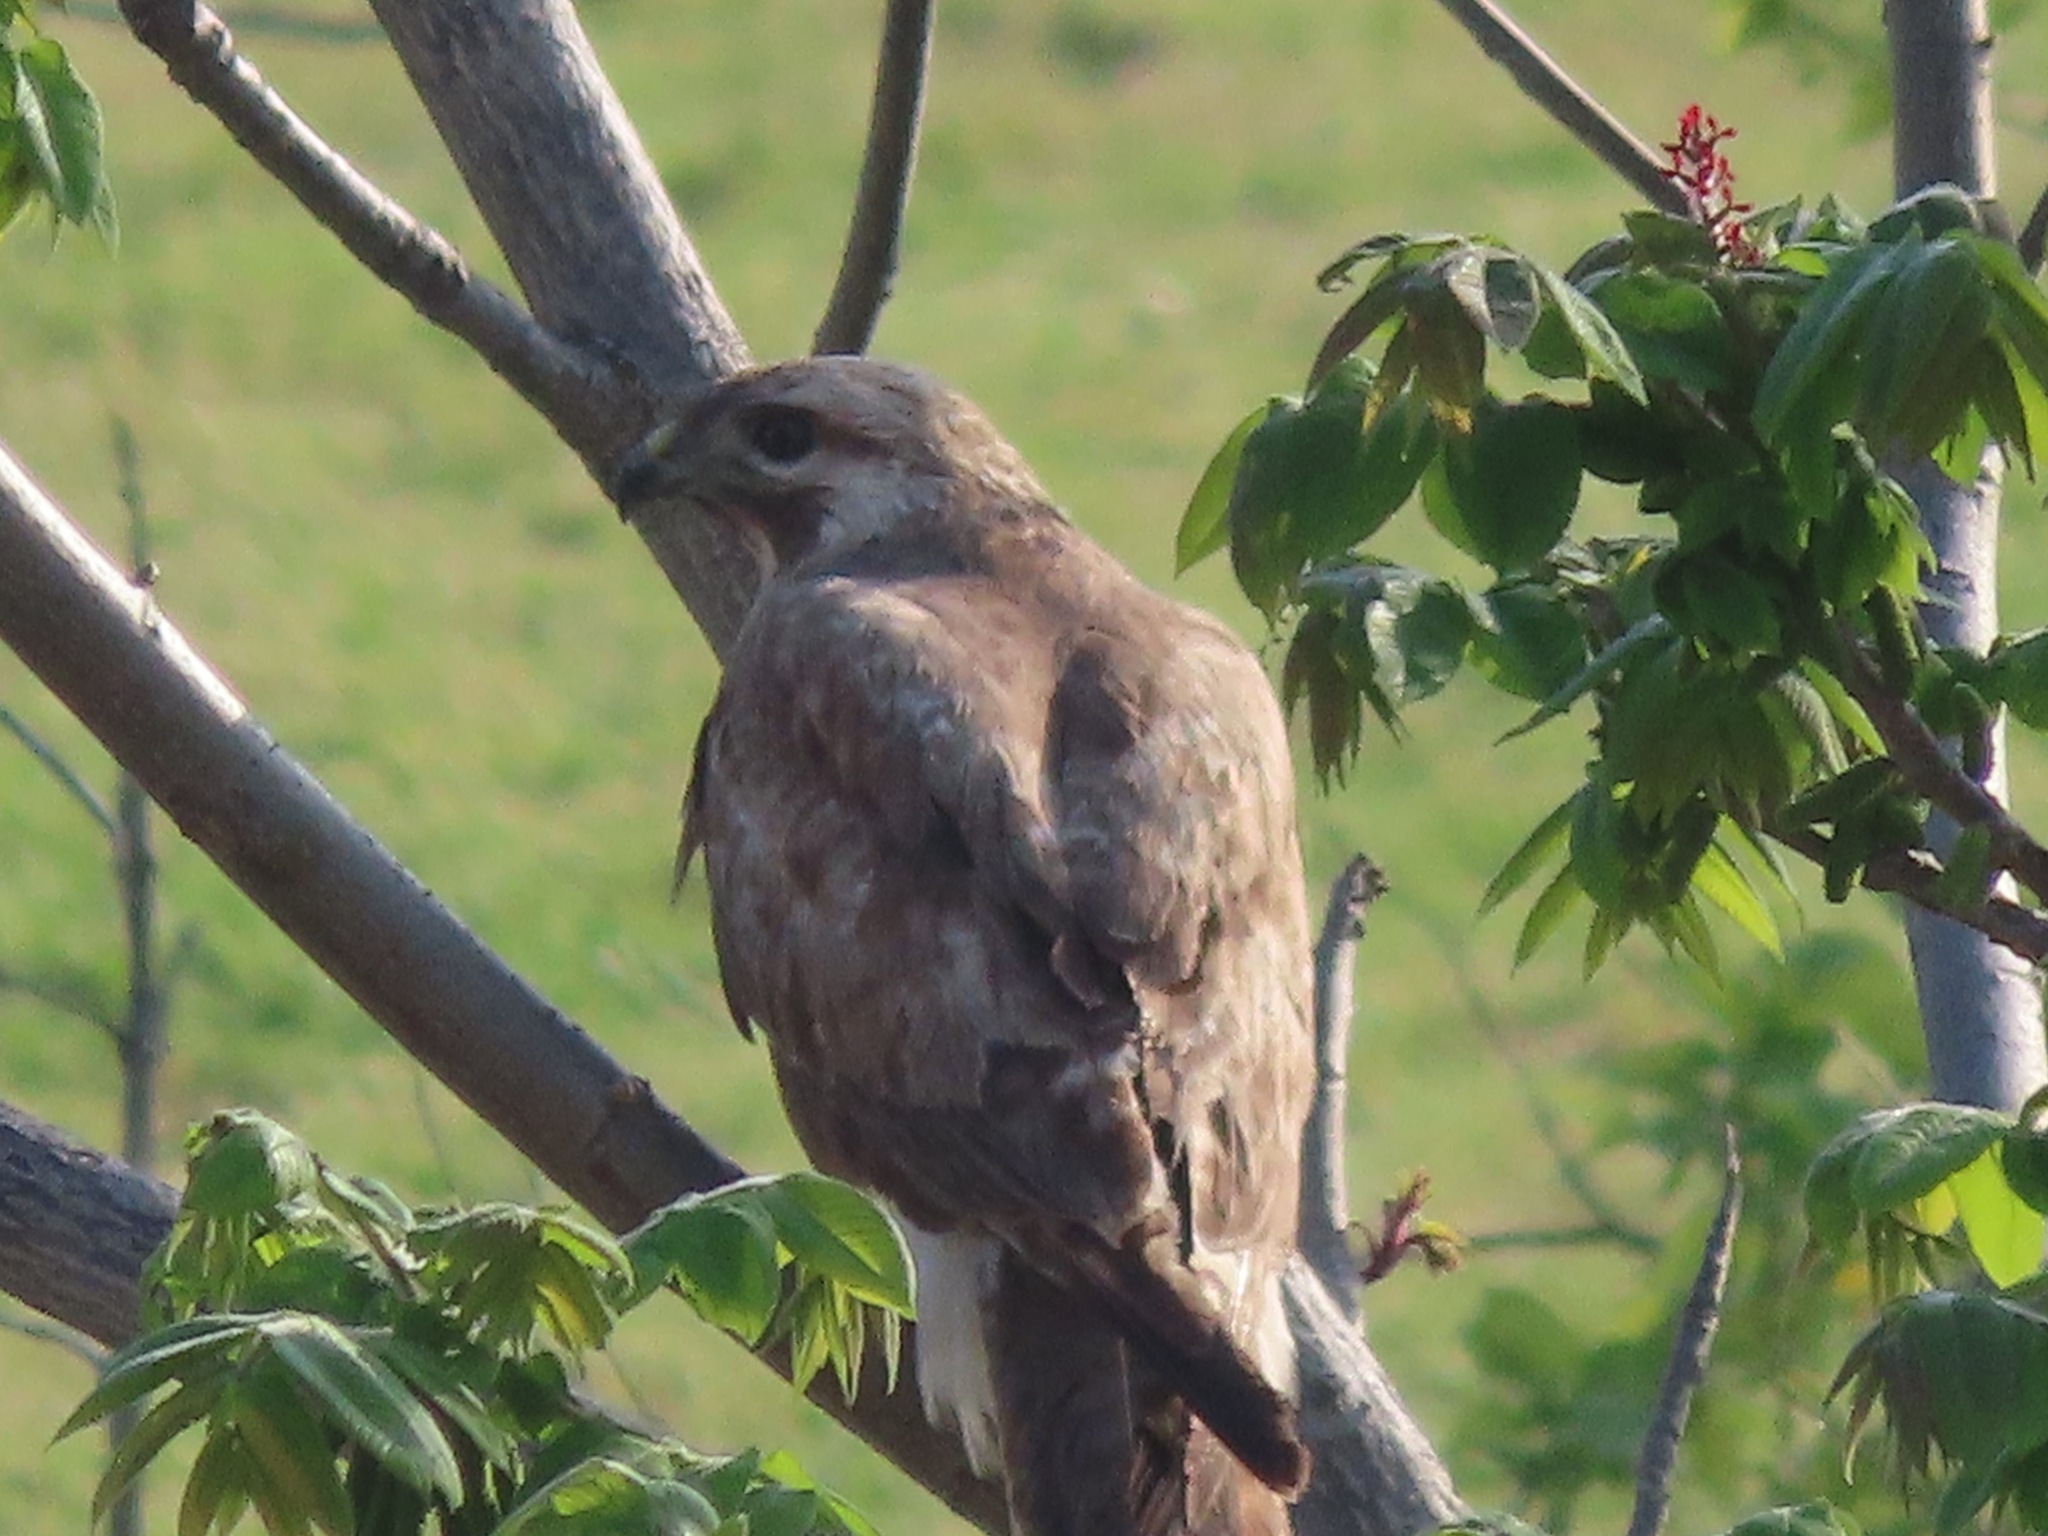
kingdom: Animalia
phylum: Chordata
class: Aves
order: Accipitriformes
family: Accipitridae
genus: Buteo
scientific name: Buteo japonicus
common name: Eastern buzzard
